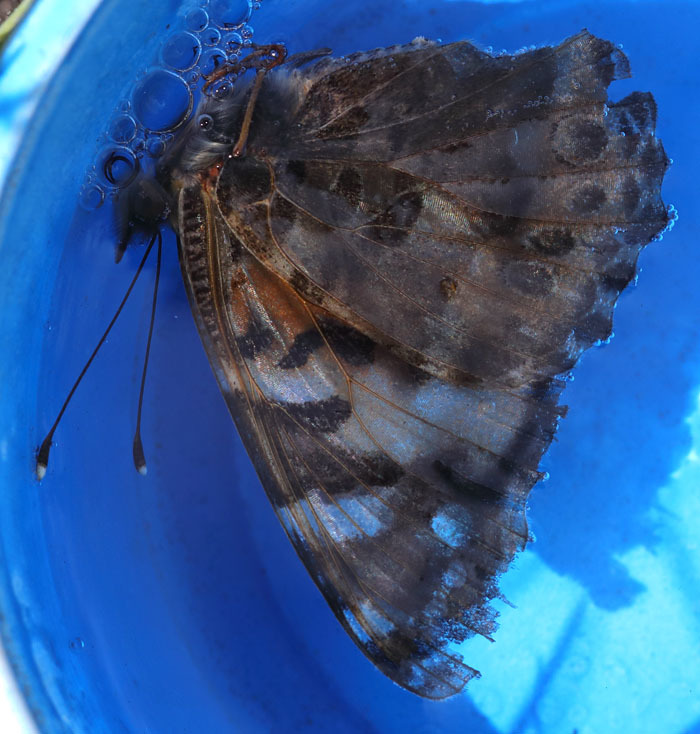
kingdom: Animalia
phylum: Arthropoda
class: Insecta
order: Lepidoptera
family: Nymphalidae
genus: Vanessa
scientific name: Vanessa cardui
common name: Painted lady
